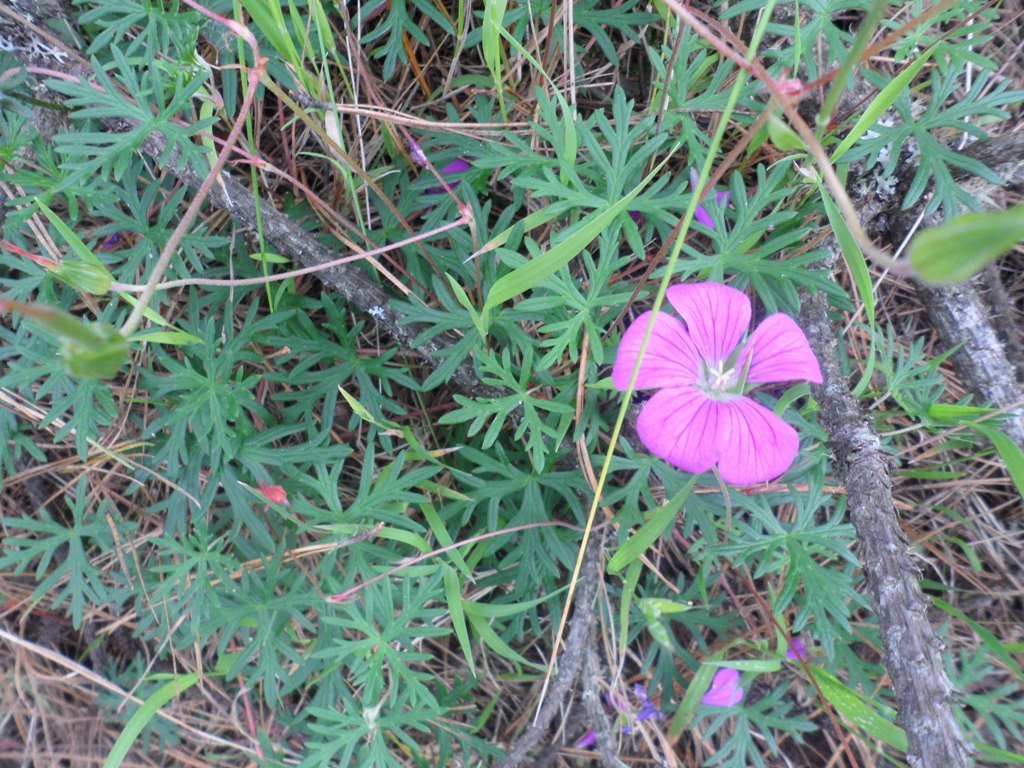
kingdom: Plantae
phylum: Tracheophyta
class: Magnoliopsida
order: Geraniales
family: Geraniaceae
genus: Geranium
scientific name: Geranium potentillifolium
